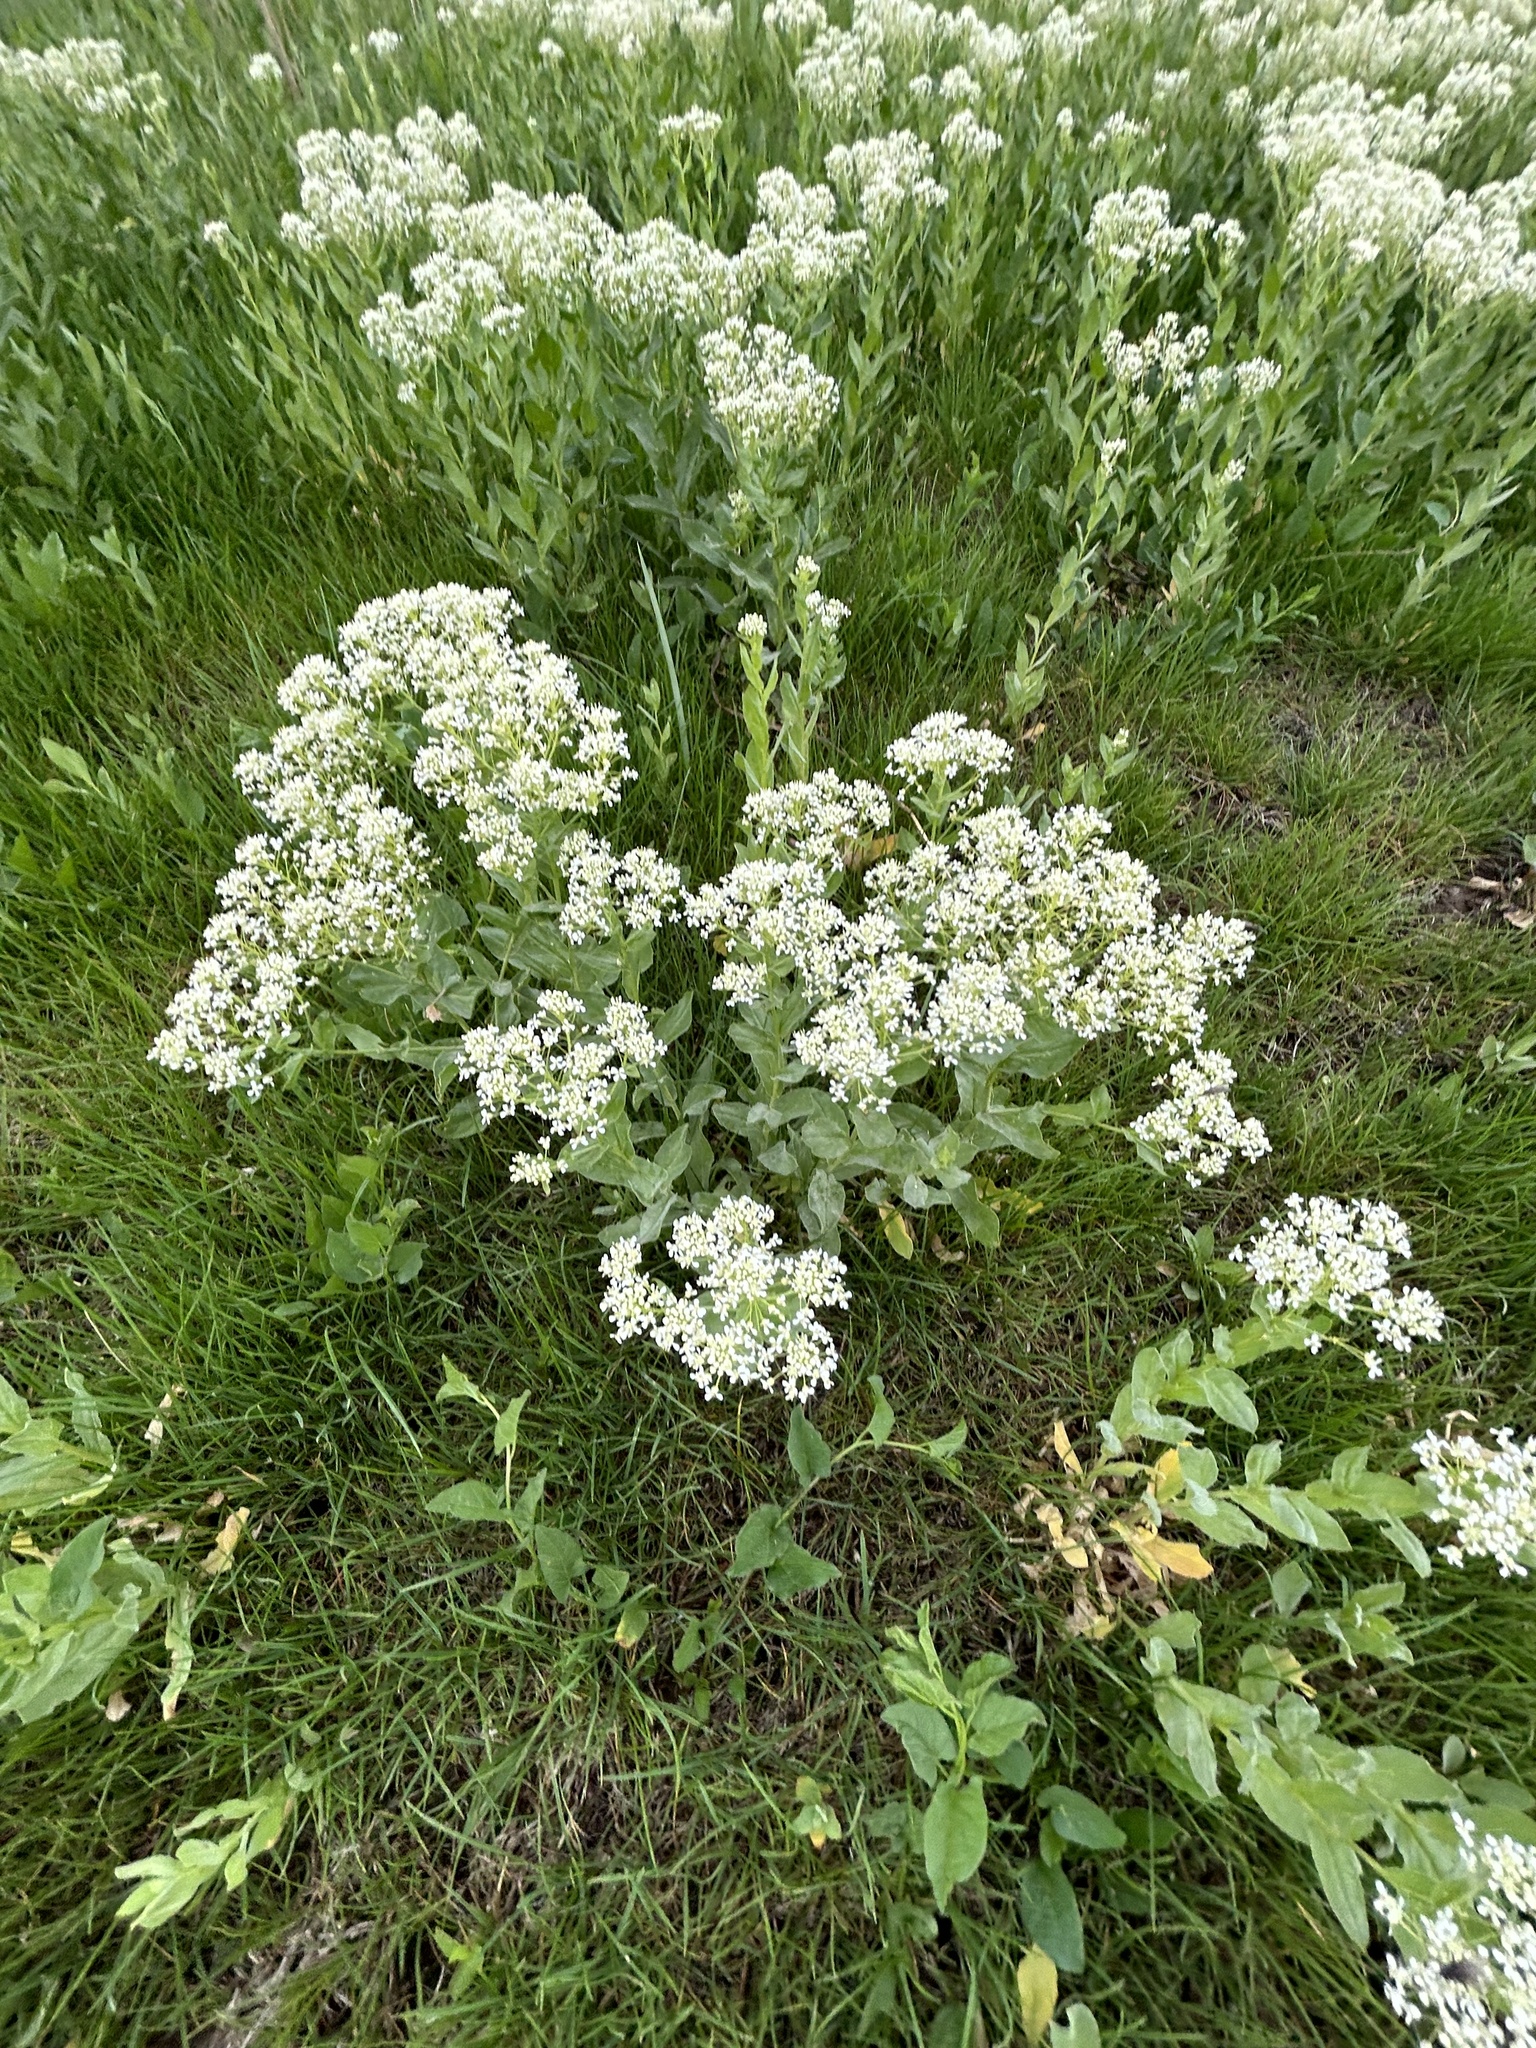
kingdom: Plantae
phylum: Tracheophyta
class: Magnoliopsida
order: Brassicales
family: Brassicaceae
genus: Lepidium
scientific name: Lepidium draba
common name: Hoary cress
